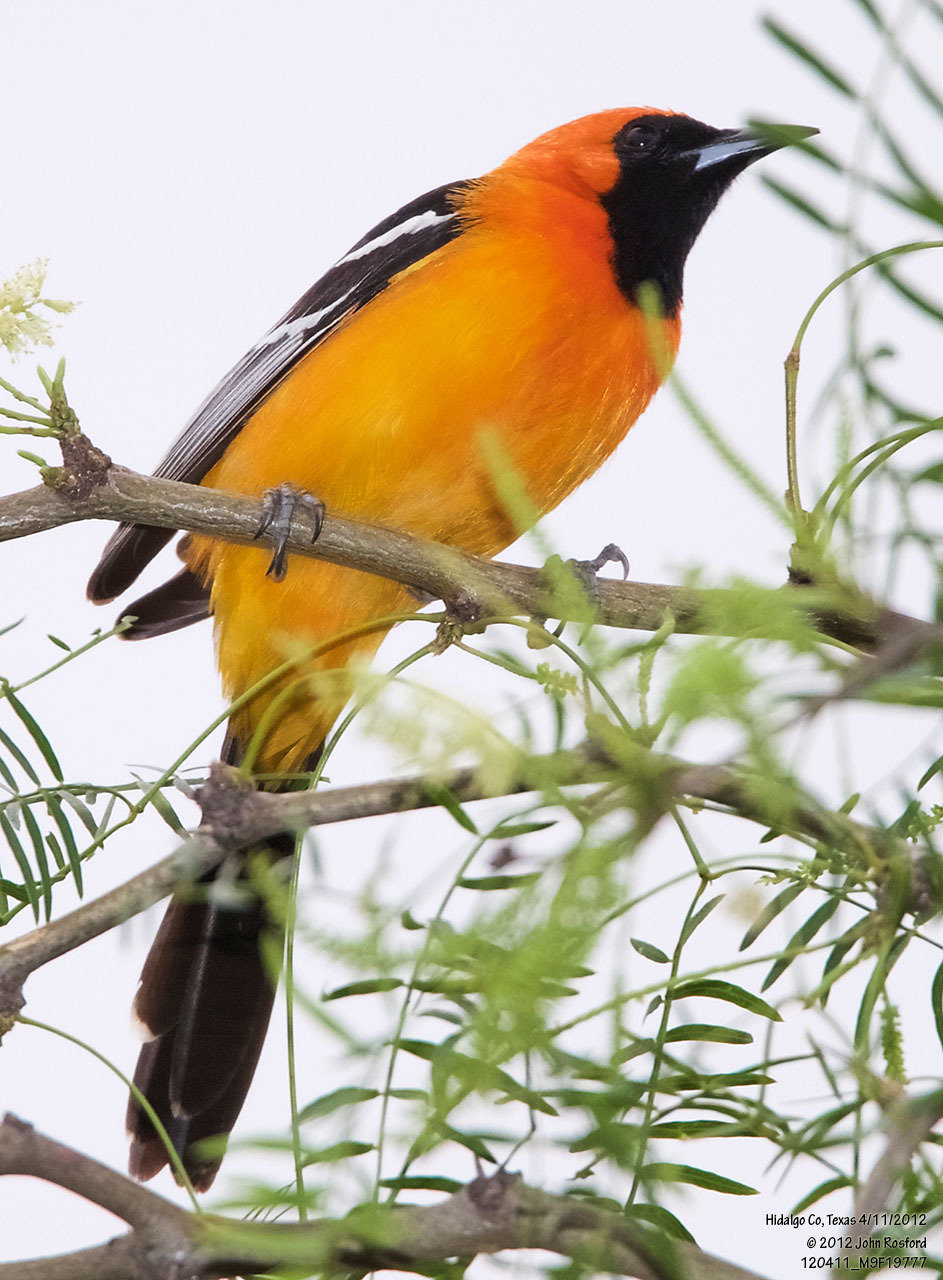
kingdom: Animalia
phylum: Chordata
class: Aves
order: Passeriformes
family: Icteridae
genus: Icterus
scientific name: Icterus cucullatus
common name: Hooded oriole
